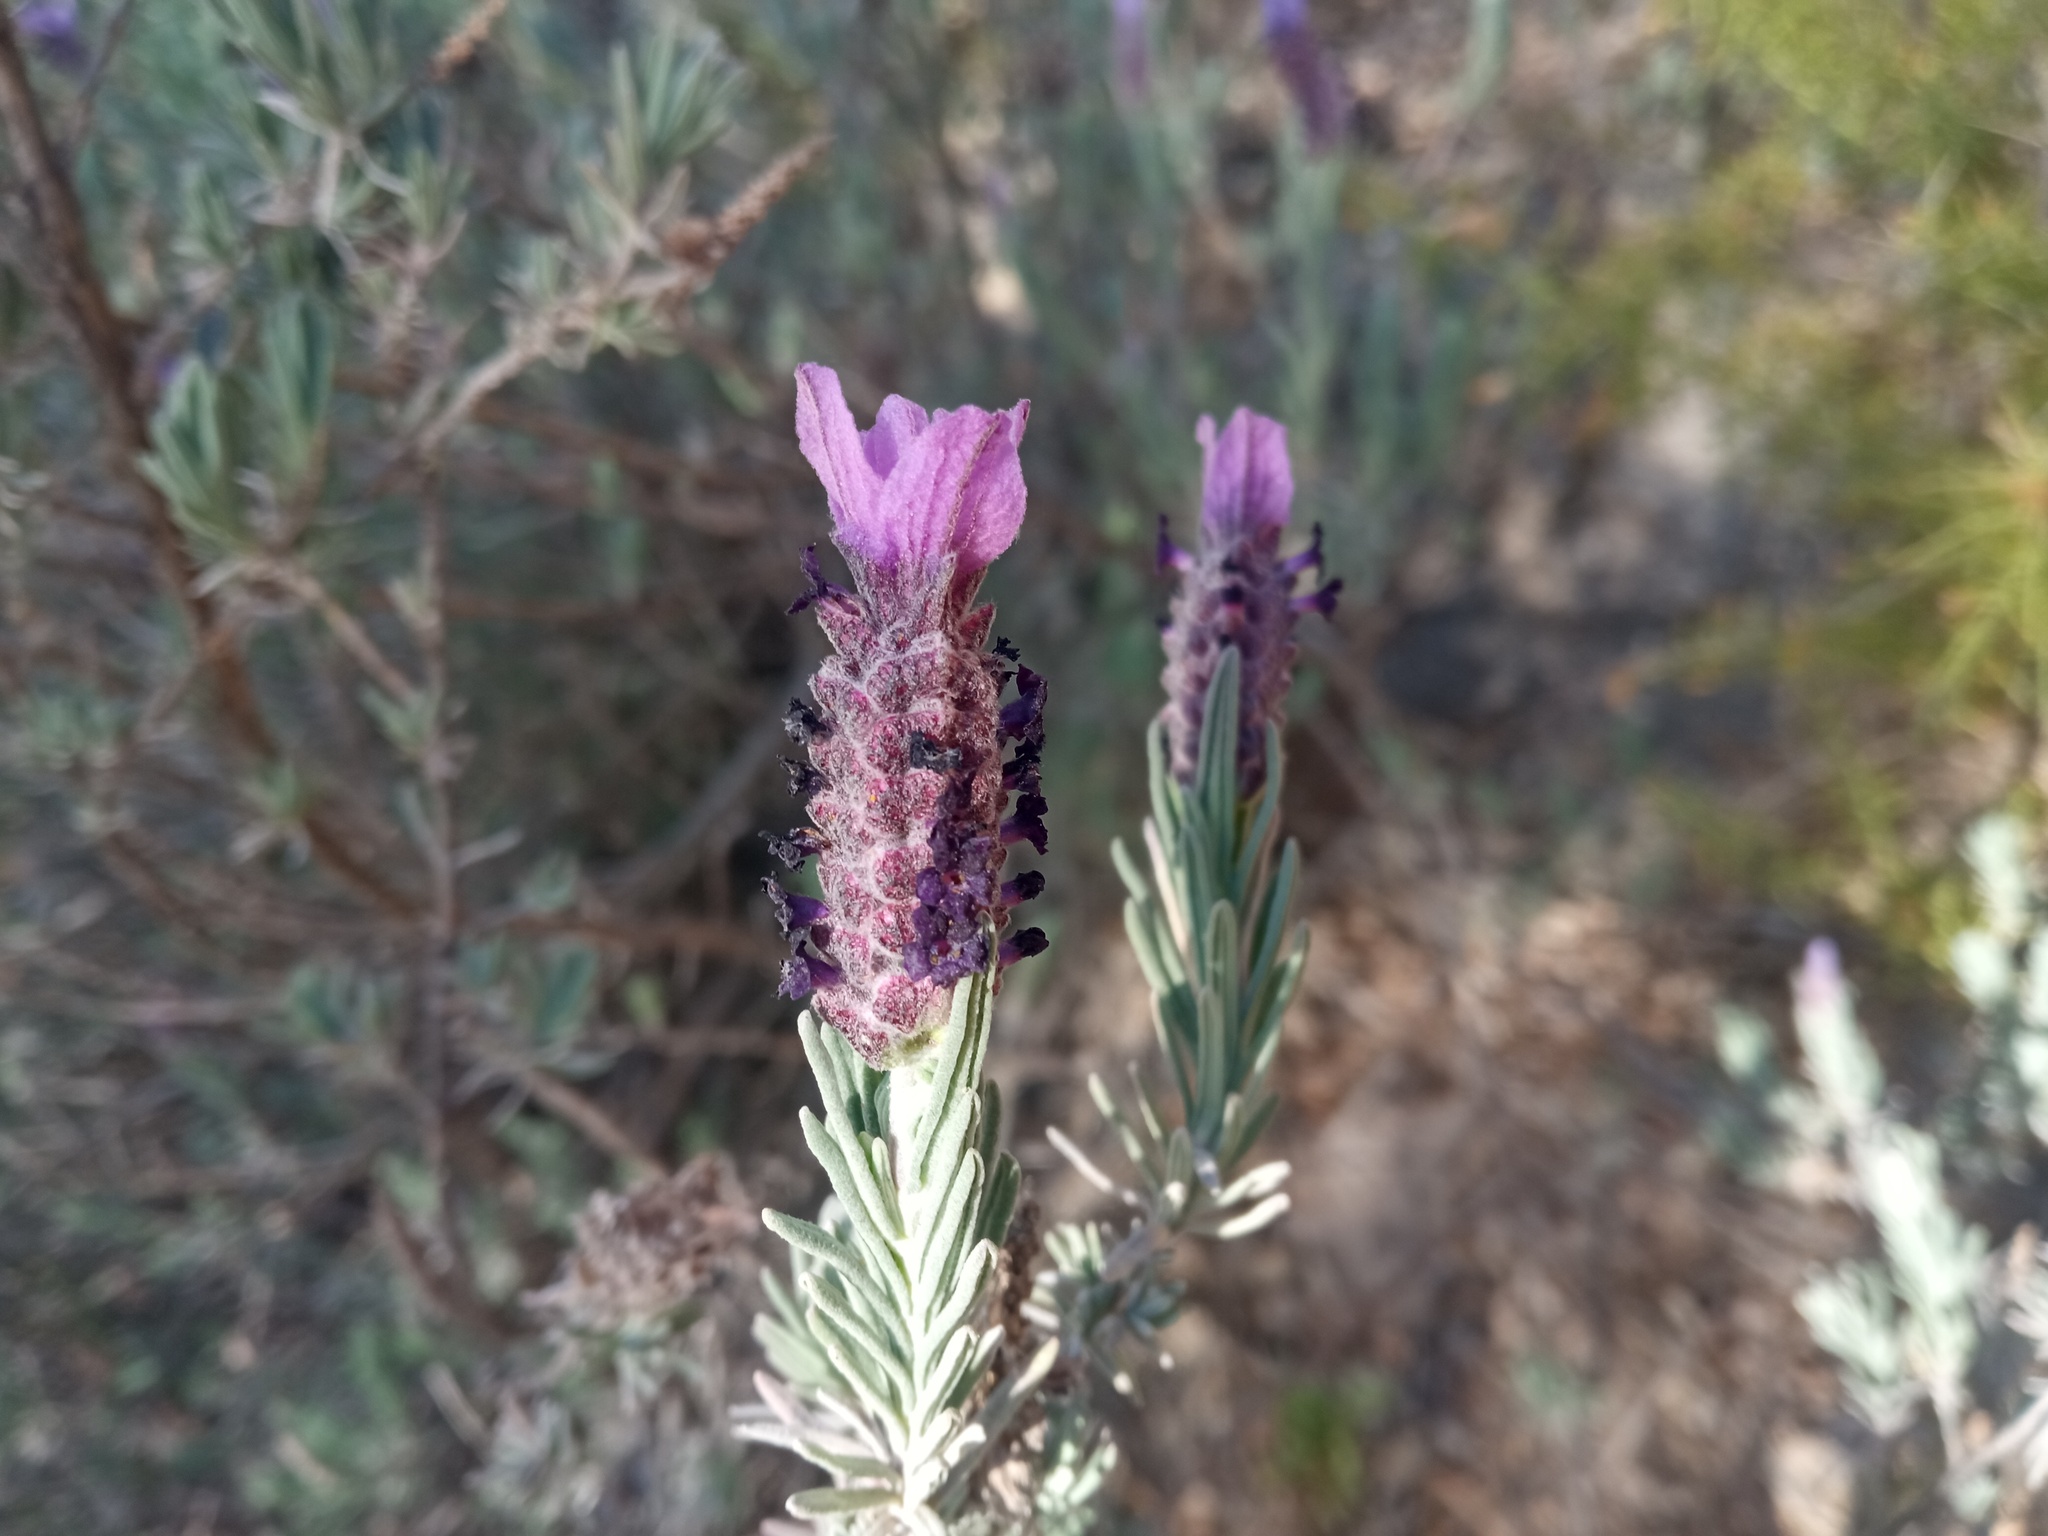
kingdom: Plantae
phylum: Tracheophyta
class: Magnoliopsida
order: Lamiales
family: Lamiaceae
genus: Lavandula
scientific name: Lavandula stoechas
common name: French lavender
